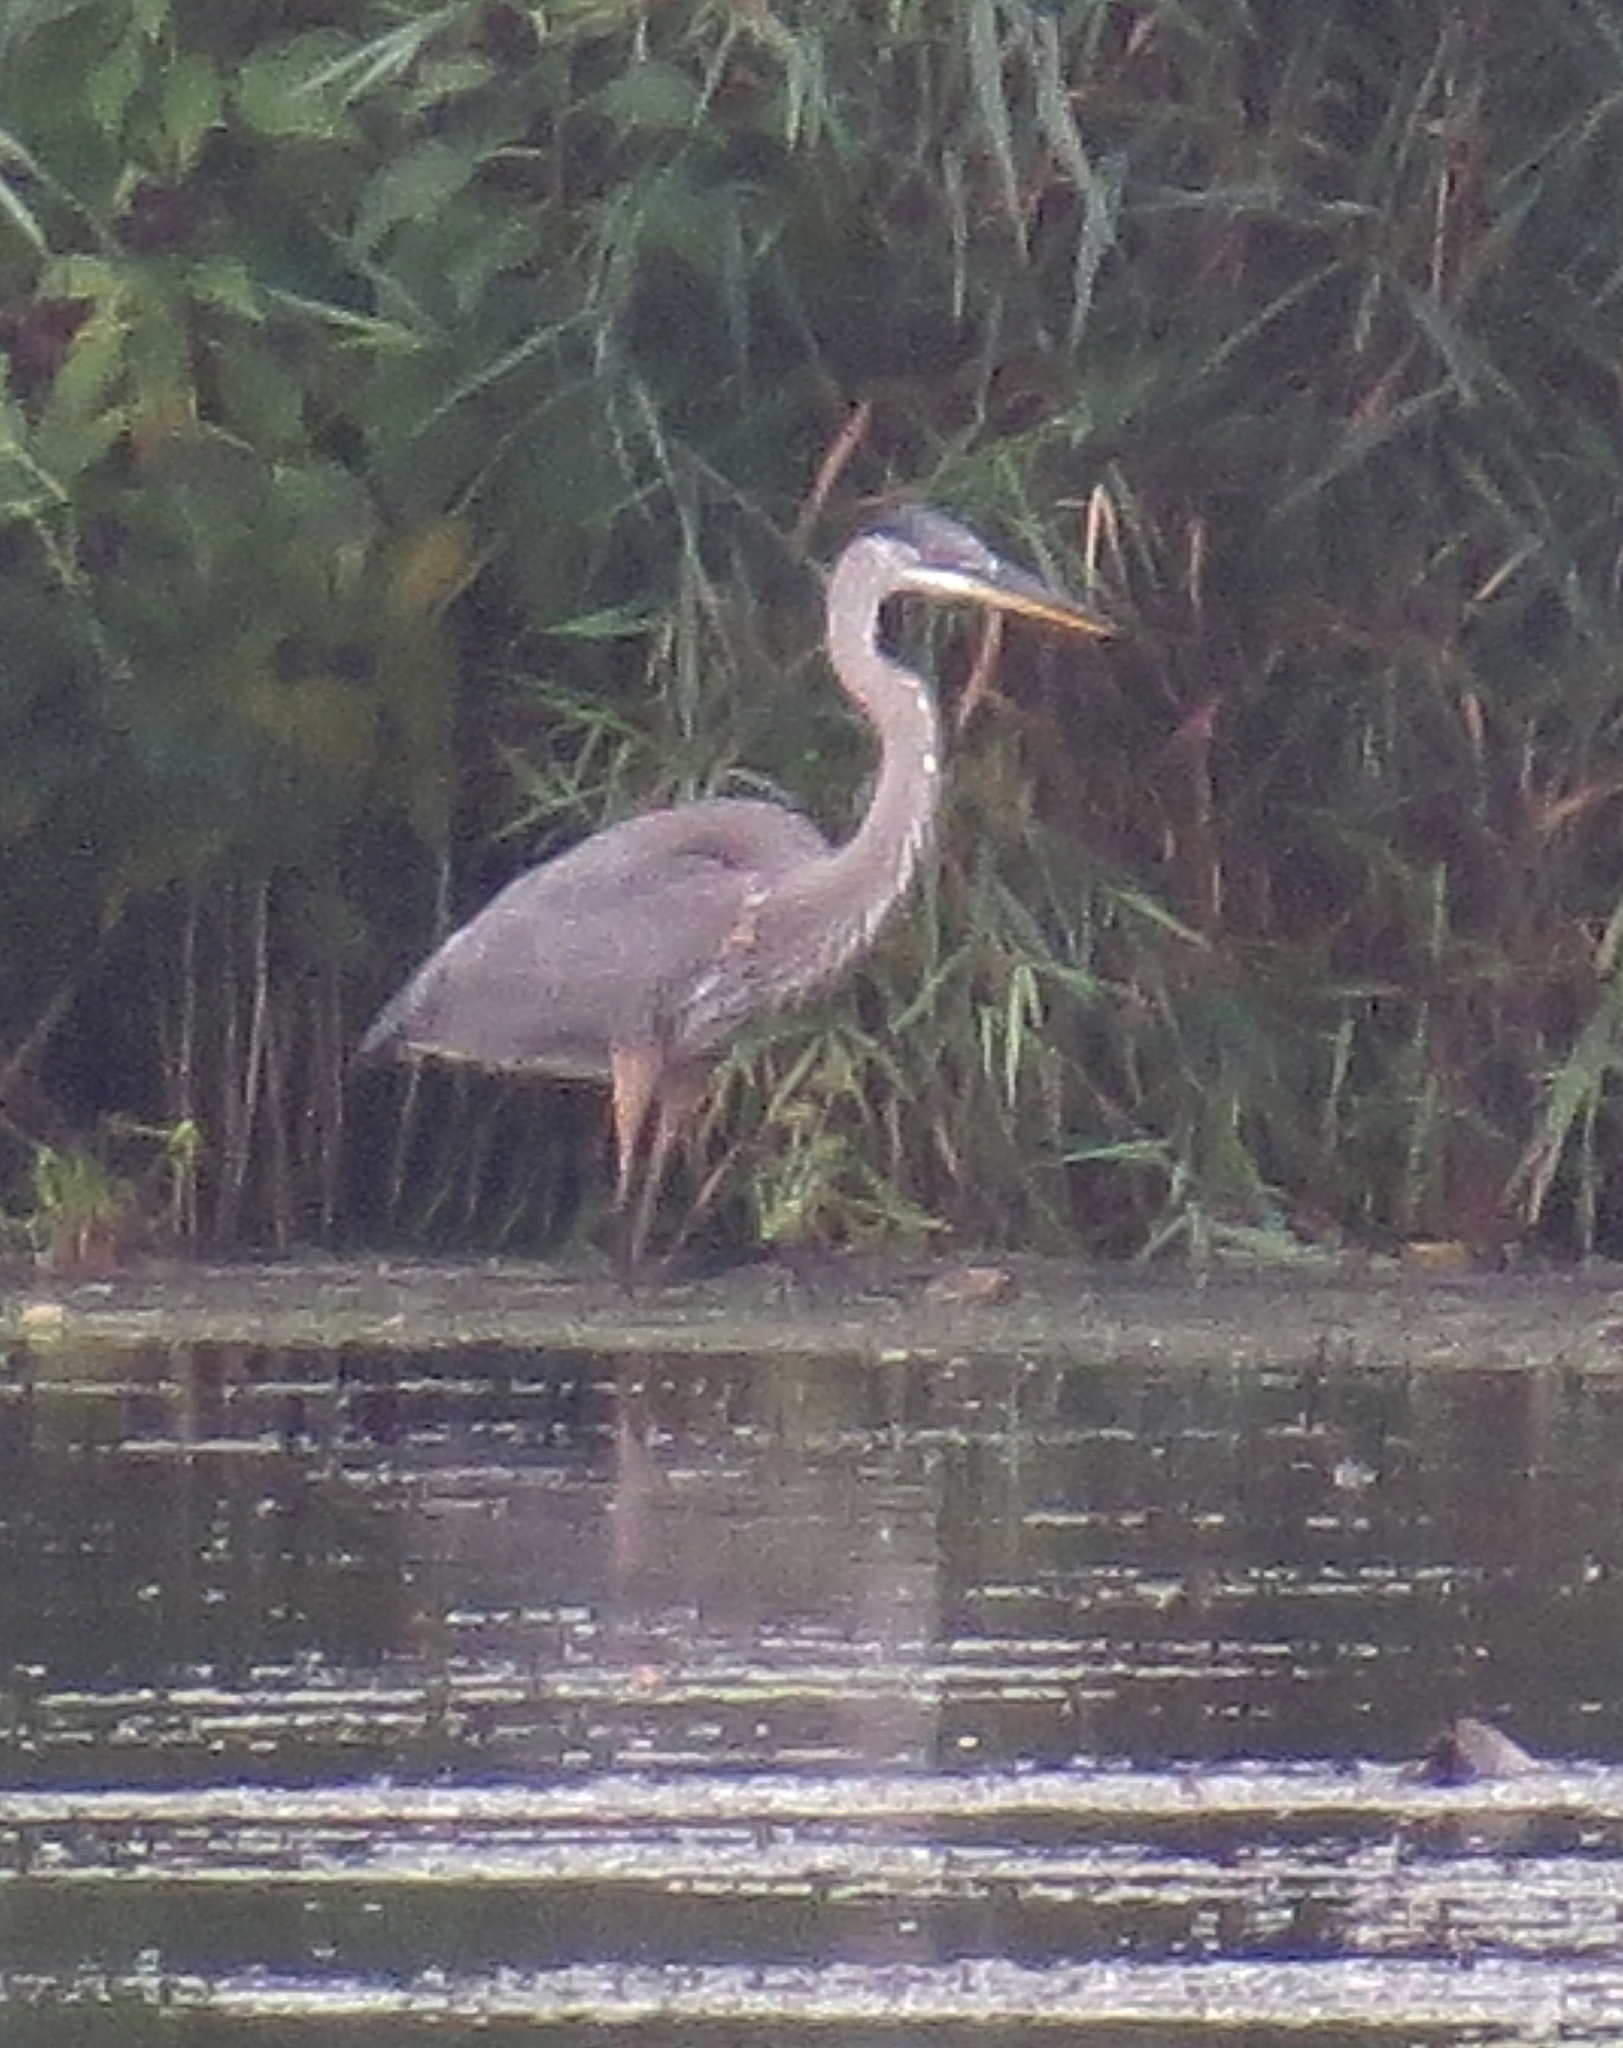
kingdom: Animalia
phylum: Chordata
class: Aves
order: Pelecaniformes
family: Ardeidae
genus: Ardea
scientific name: Ardea herodias
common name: Great blue heron
